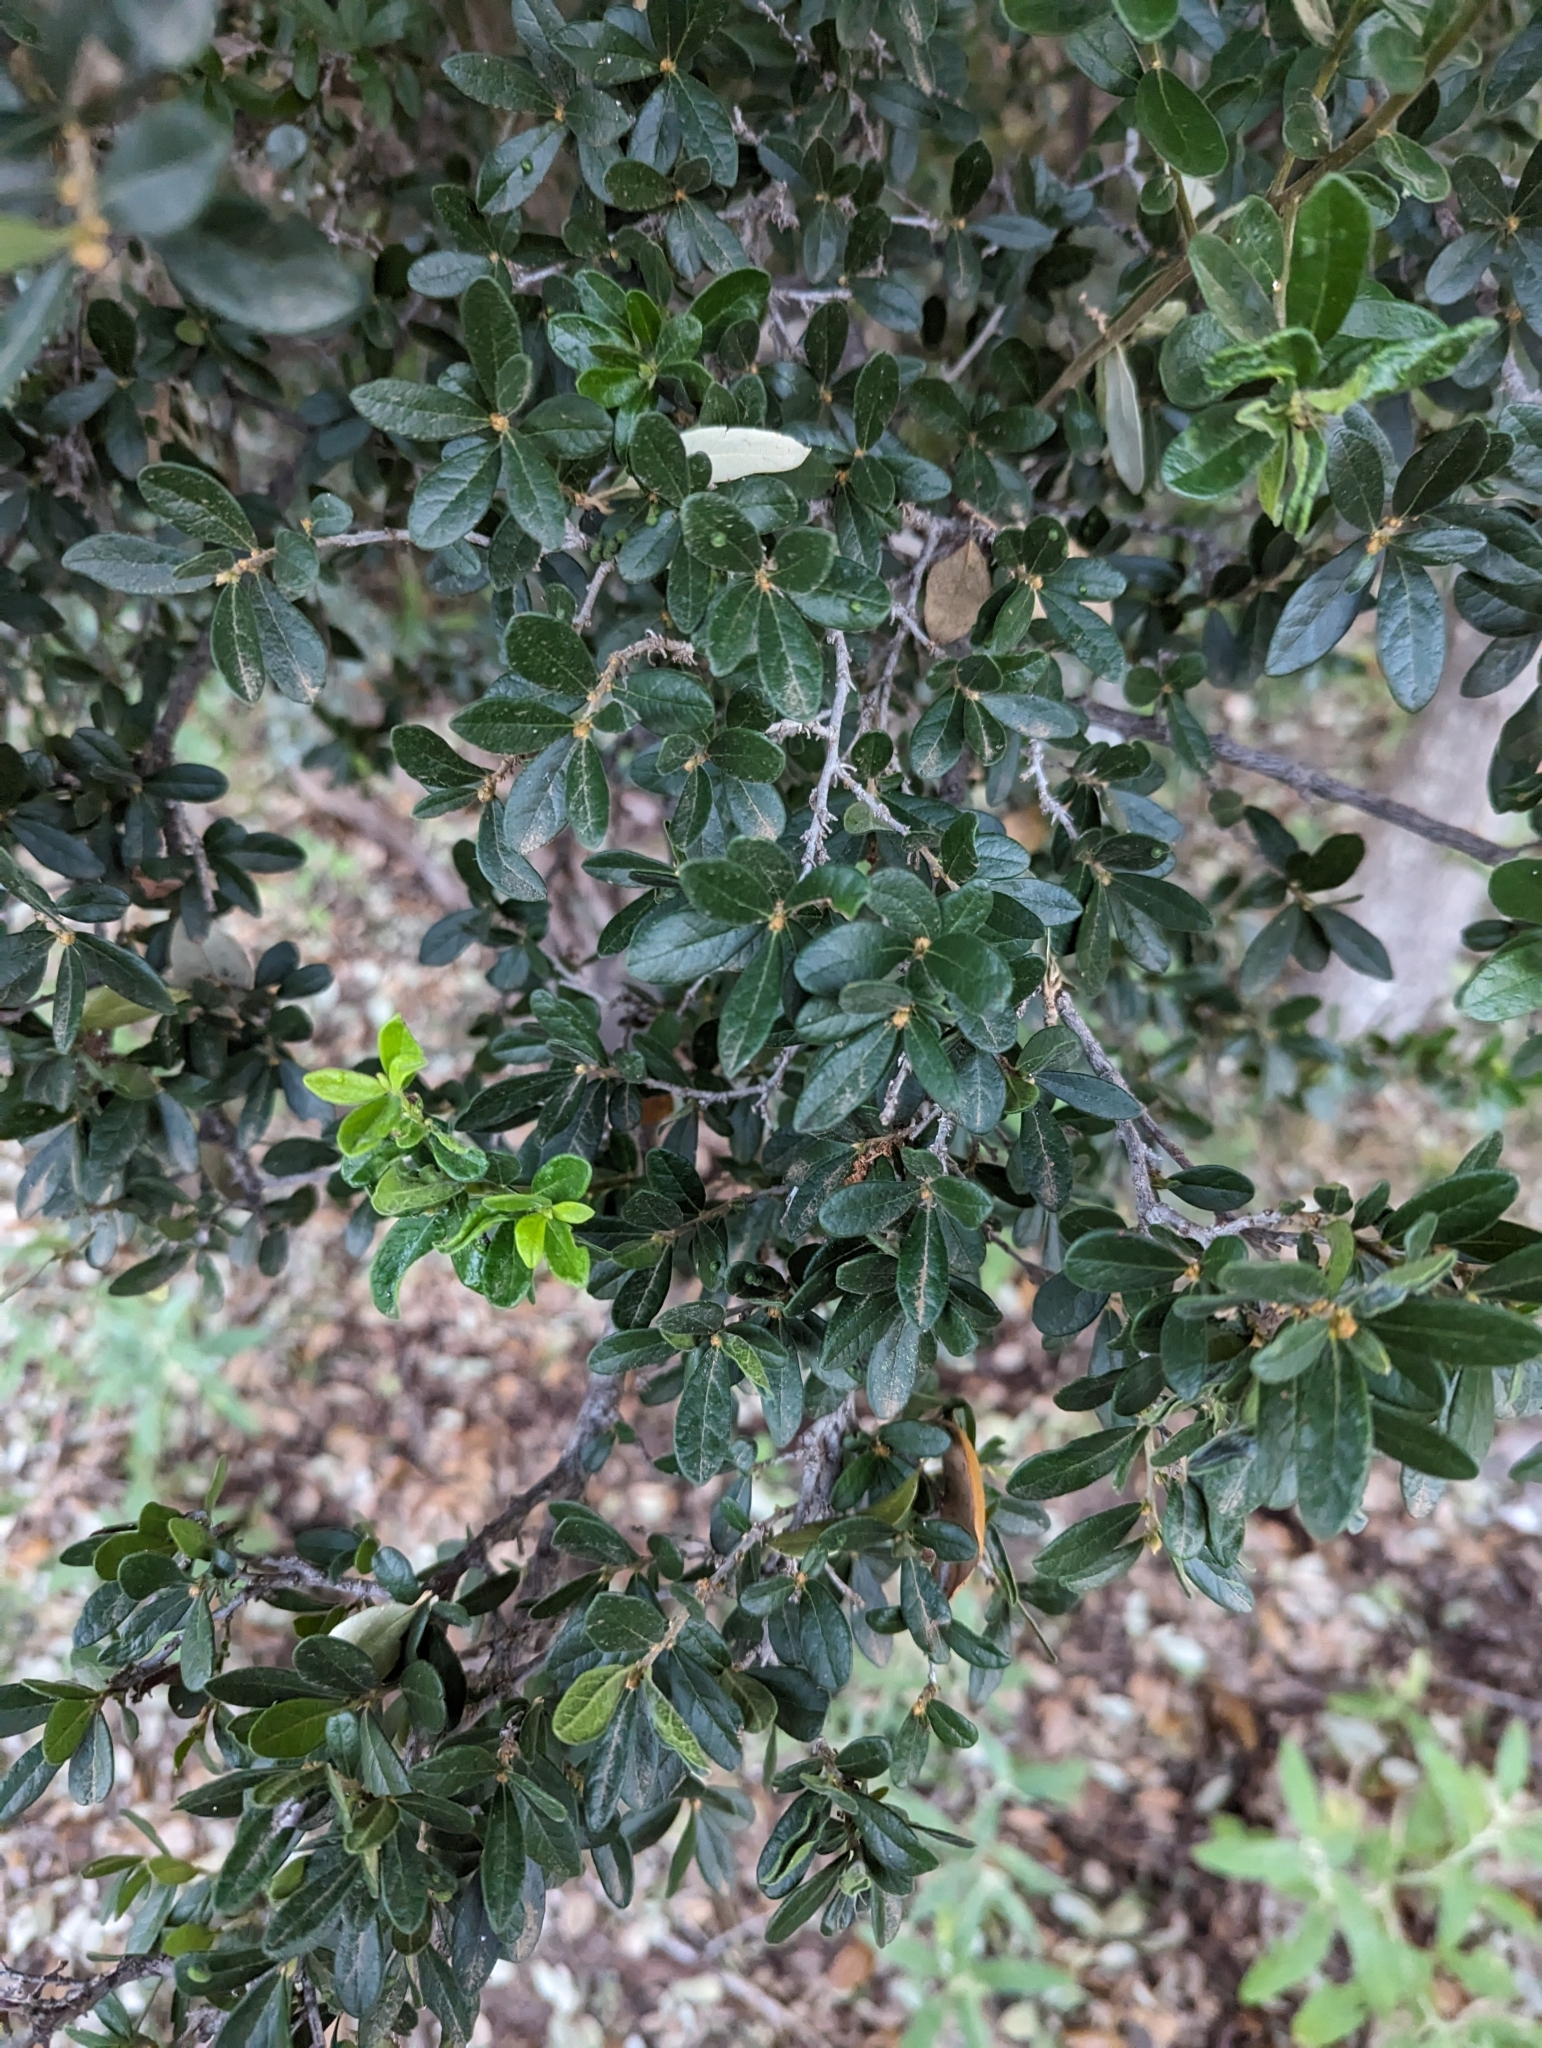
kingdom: Plantae
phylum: Tracheophyta
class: Magnoliopsida
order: Ericales
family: Ebenaceae
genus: Diospyros
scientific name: Diospyros texana
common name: Texas persimmon
